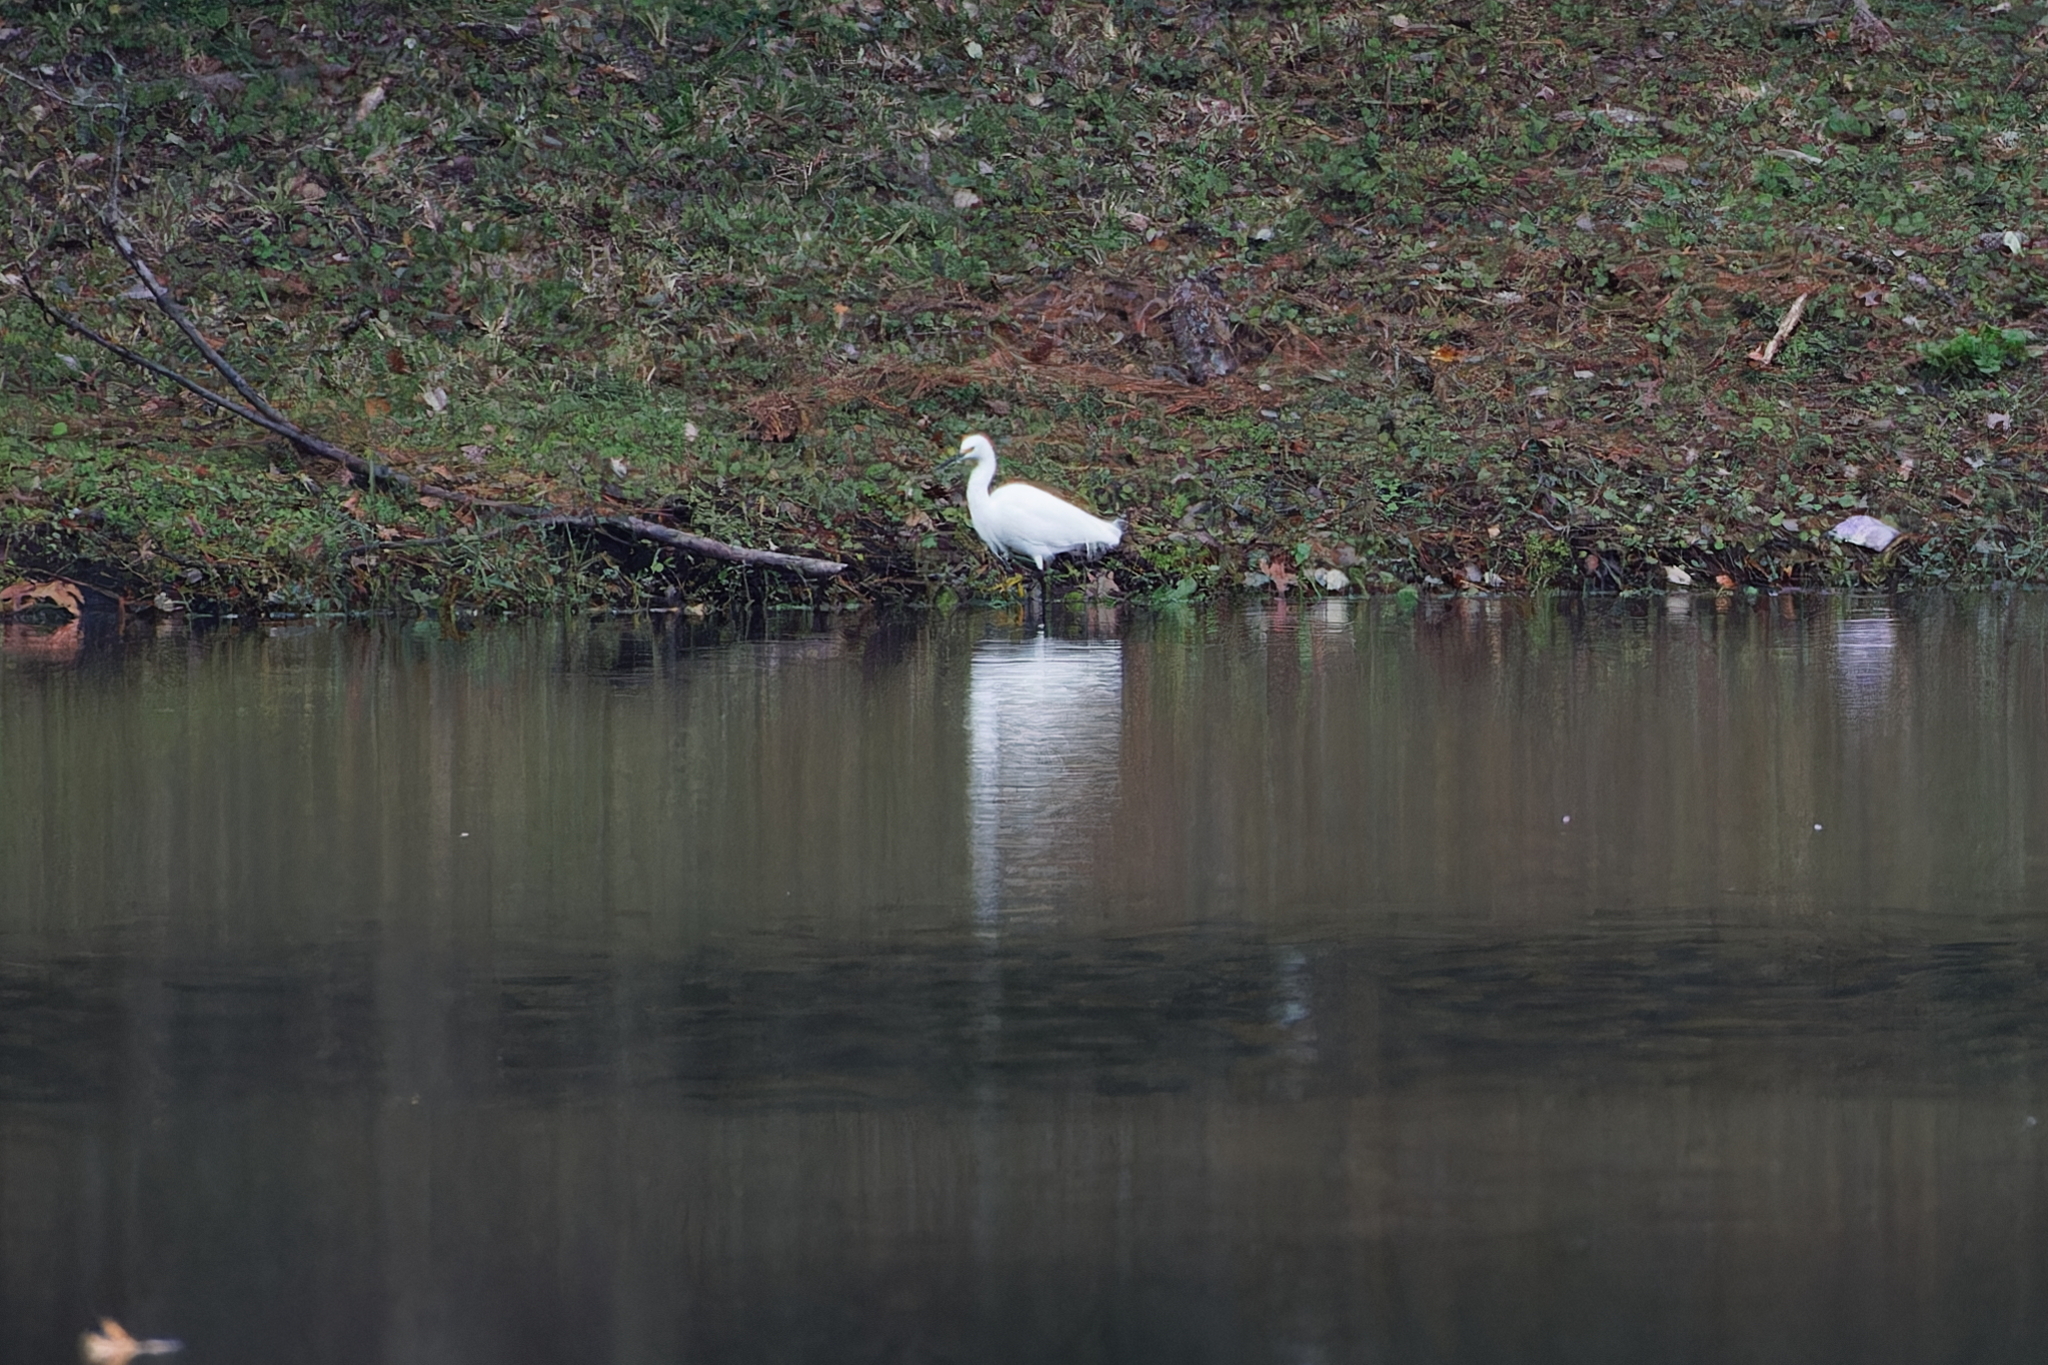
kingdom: Animalia
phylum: Chordata
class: Aves
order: Pelecaniformes
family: Ardeidae
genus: Egretta
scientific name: Egretta thula
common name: Snowy egret
